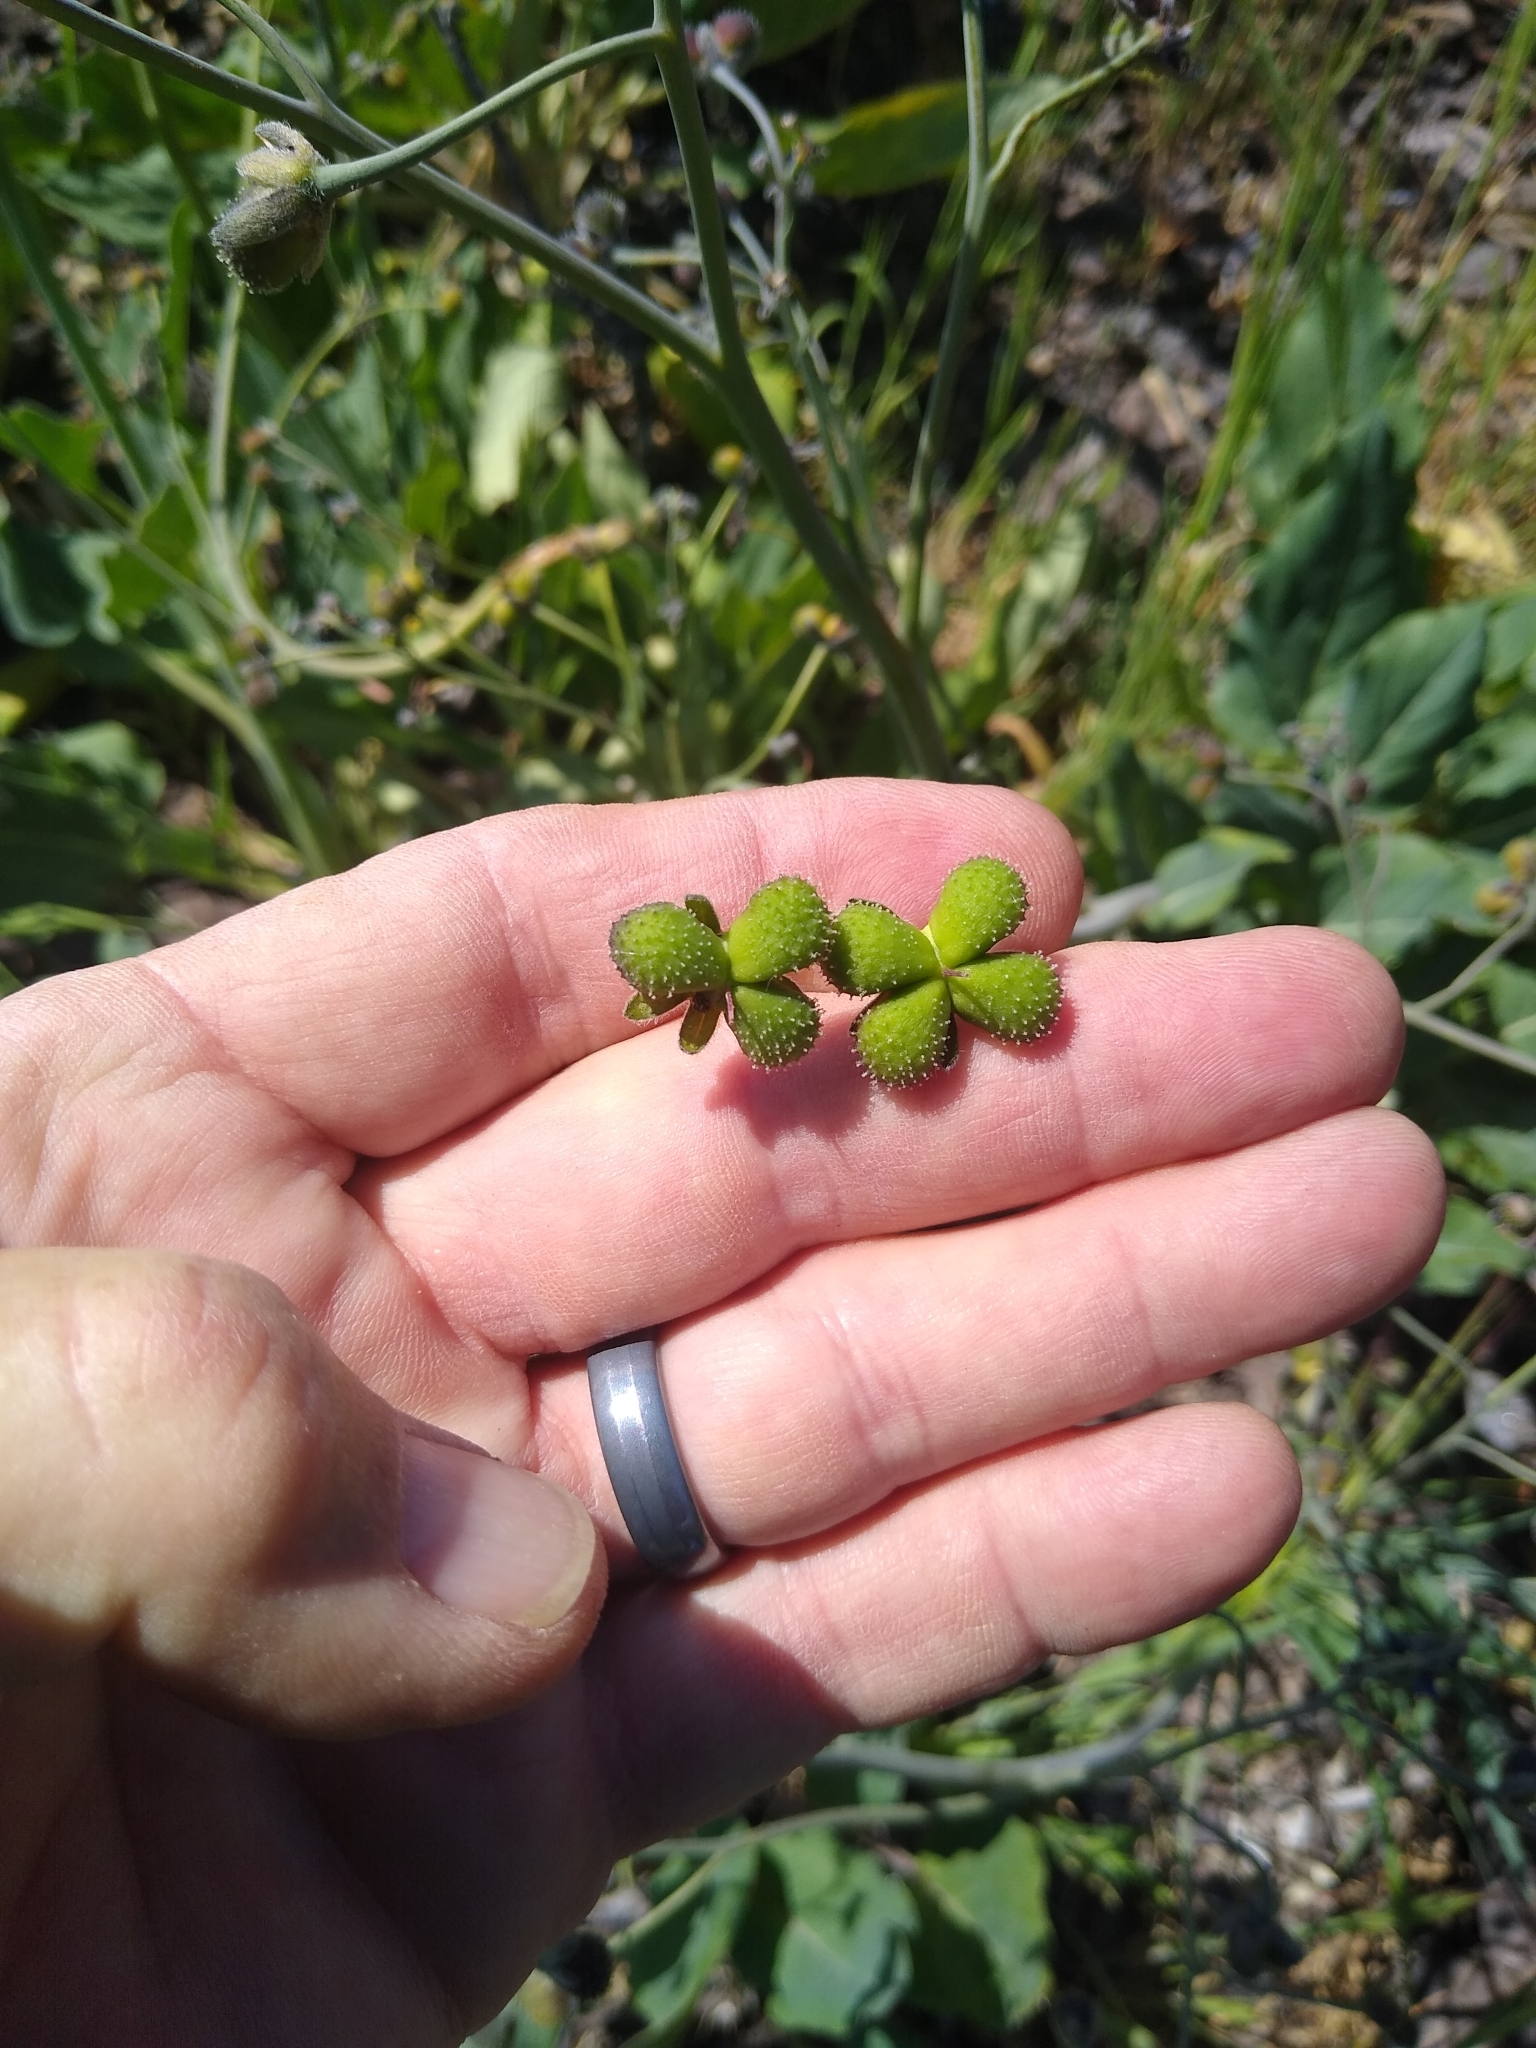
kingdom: Plantae
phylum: Tracheophyta
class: Magnoliopsida
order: Boraginales
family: Boraginaceae
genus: Adelinia
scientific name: Adelinia grande
